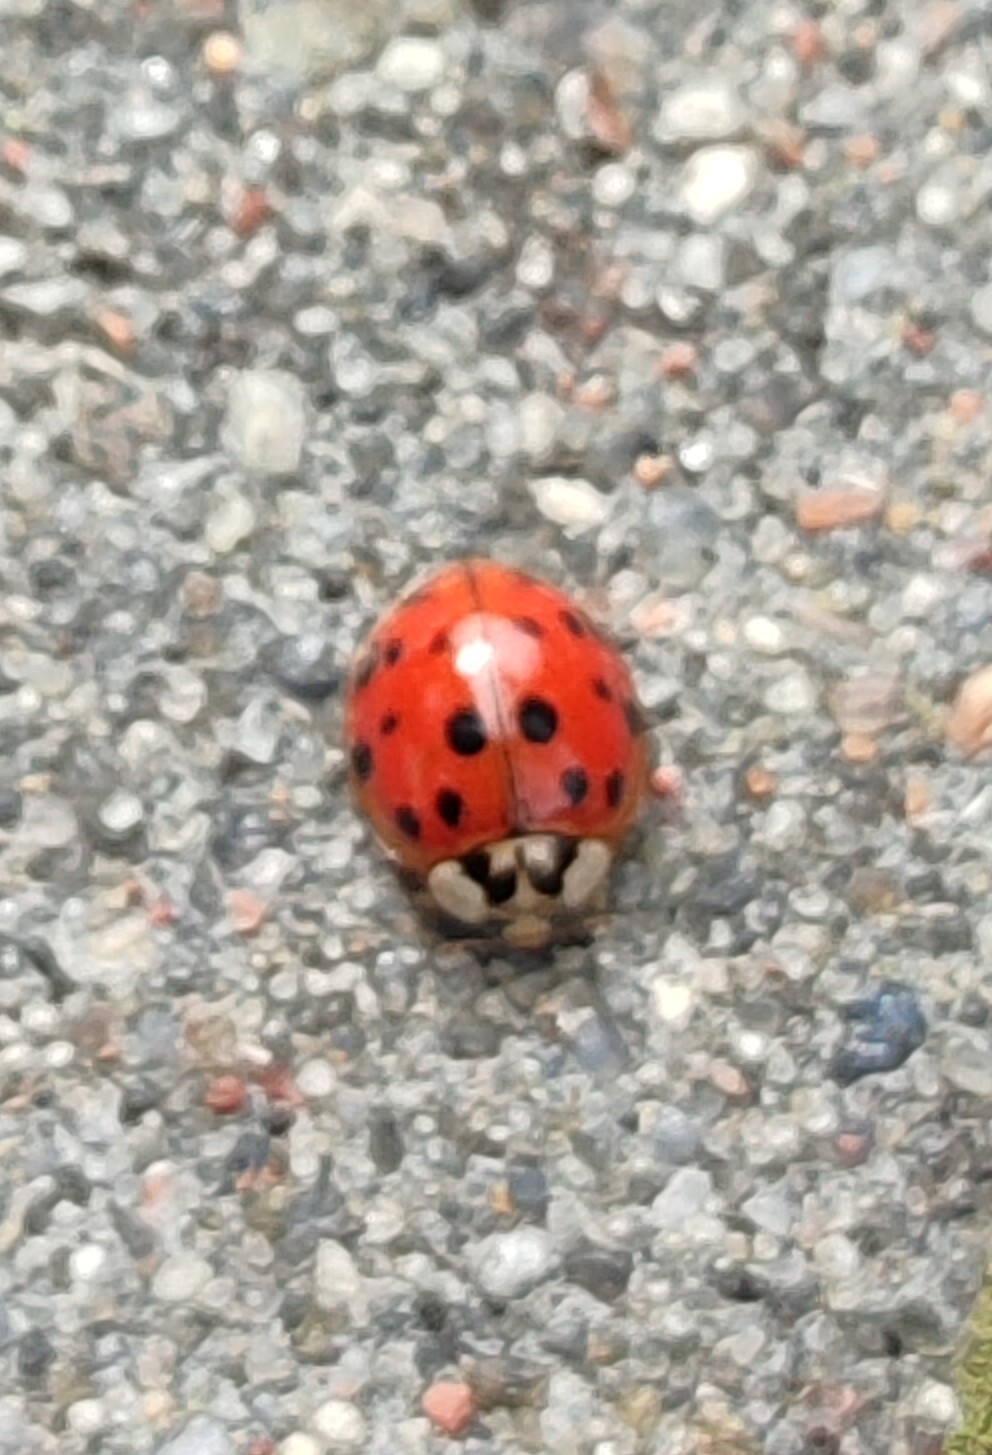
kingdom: Animalia
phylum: Arthropoda
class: Insecta
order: Coleoptera
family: Coccinellidae
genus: Harmonia
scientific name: Harmonia axyridis
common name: Harlequin ladybird
